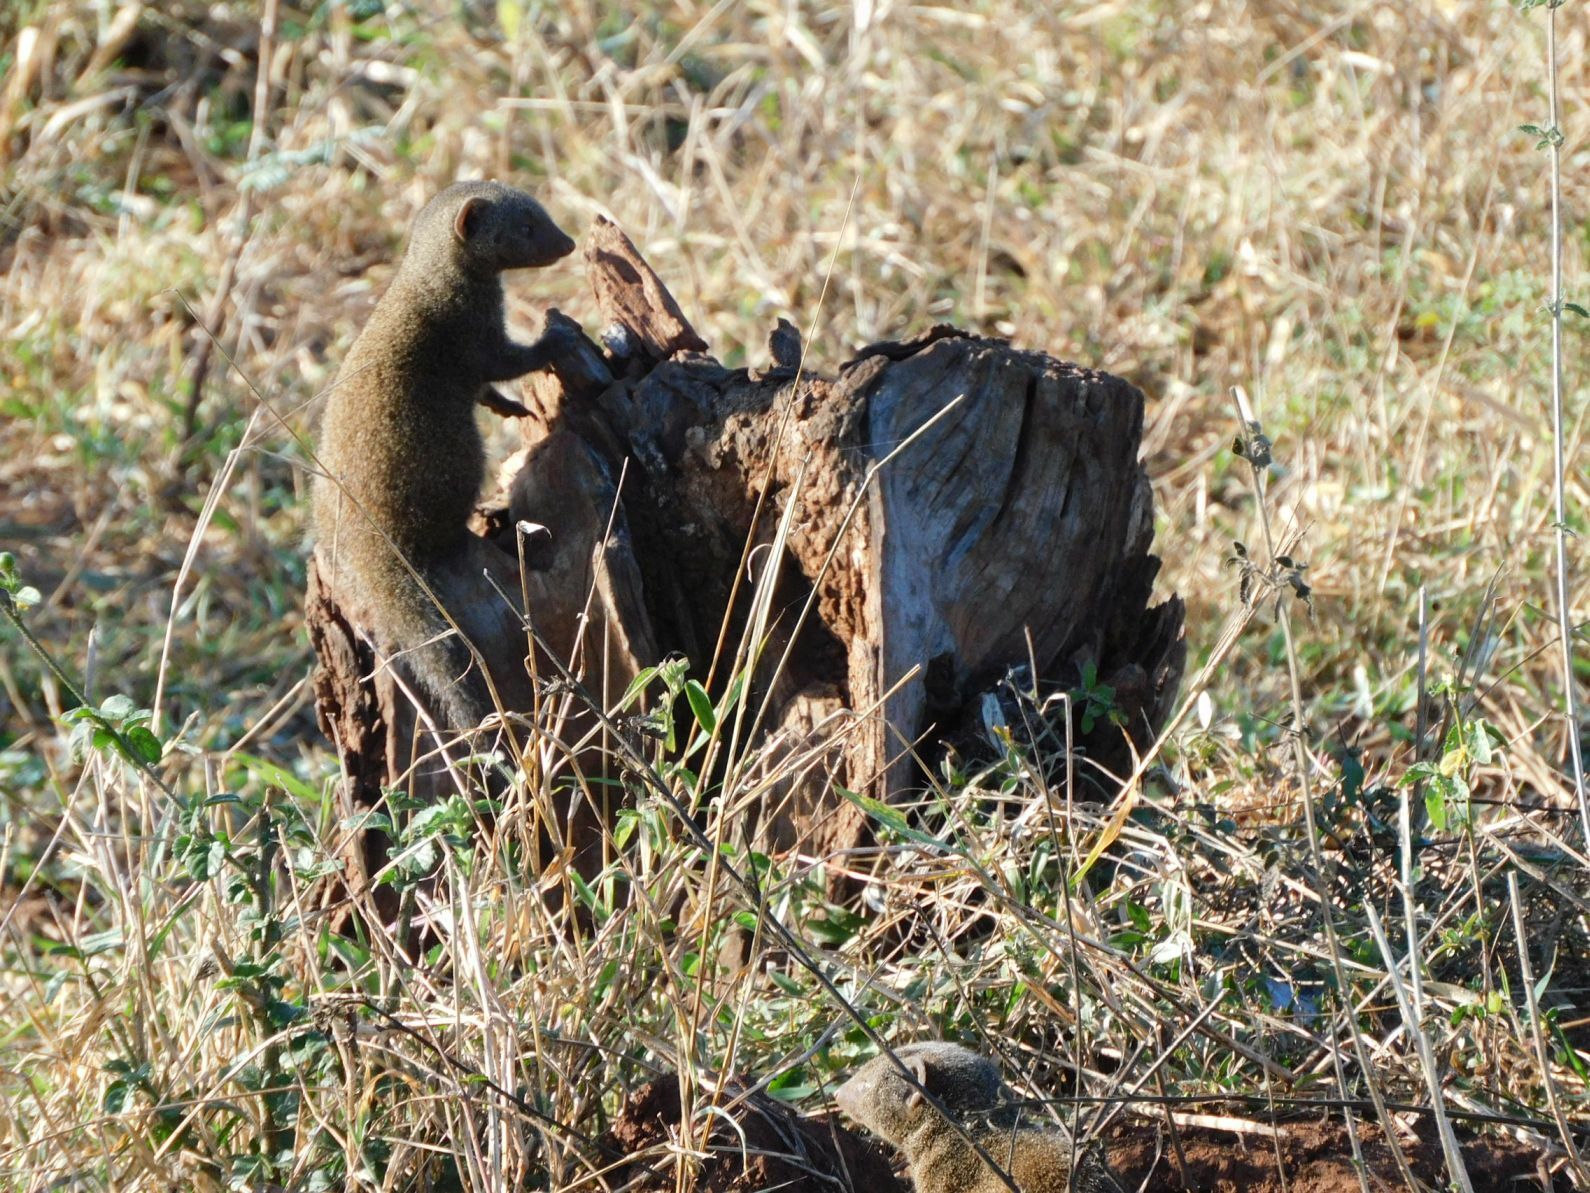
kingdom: Animalia
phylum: Chordata
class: Mammalia
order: Carnivora
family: Herpestidae
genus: Helogale
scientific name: Helogale parvula
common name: Common dwarf mongoose
